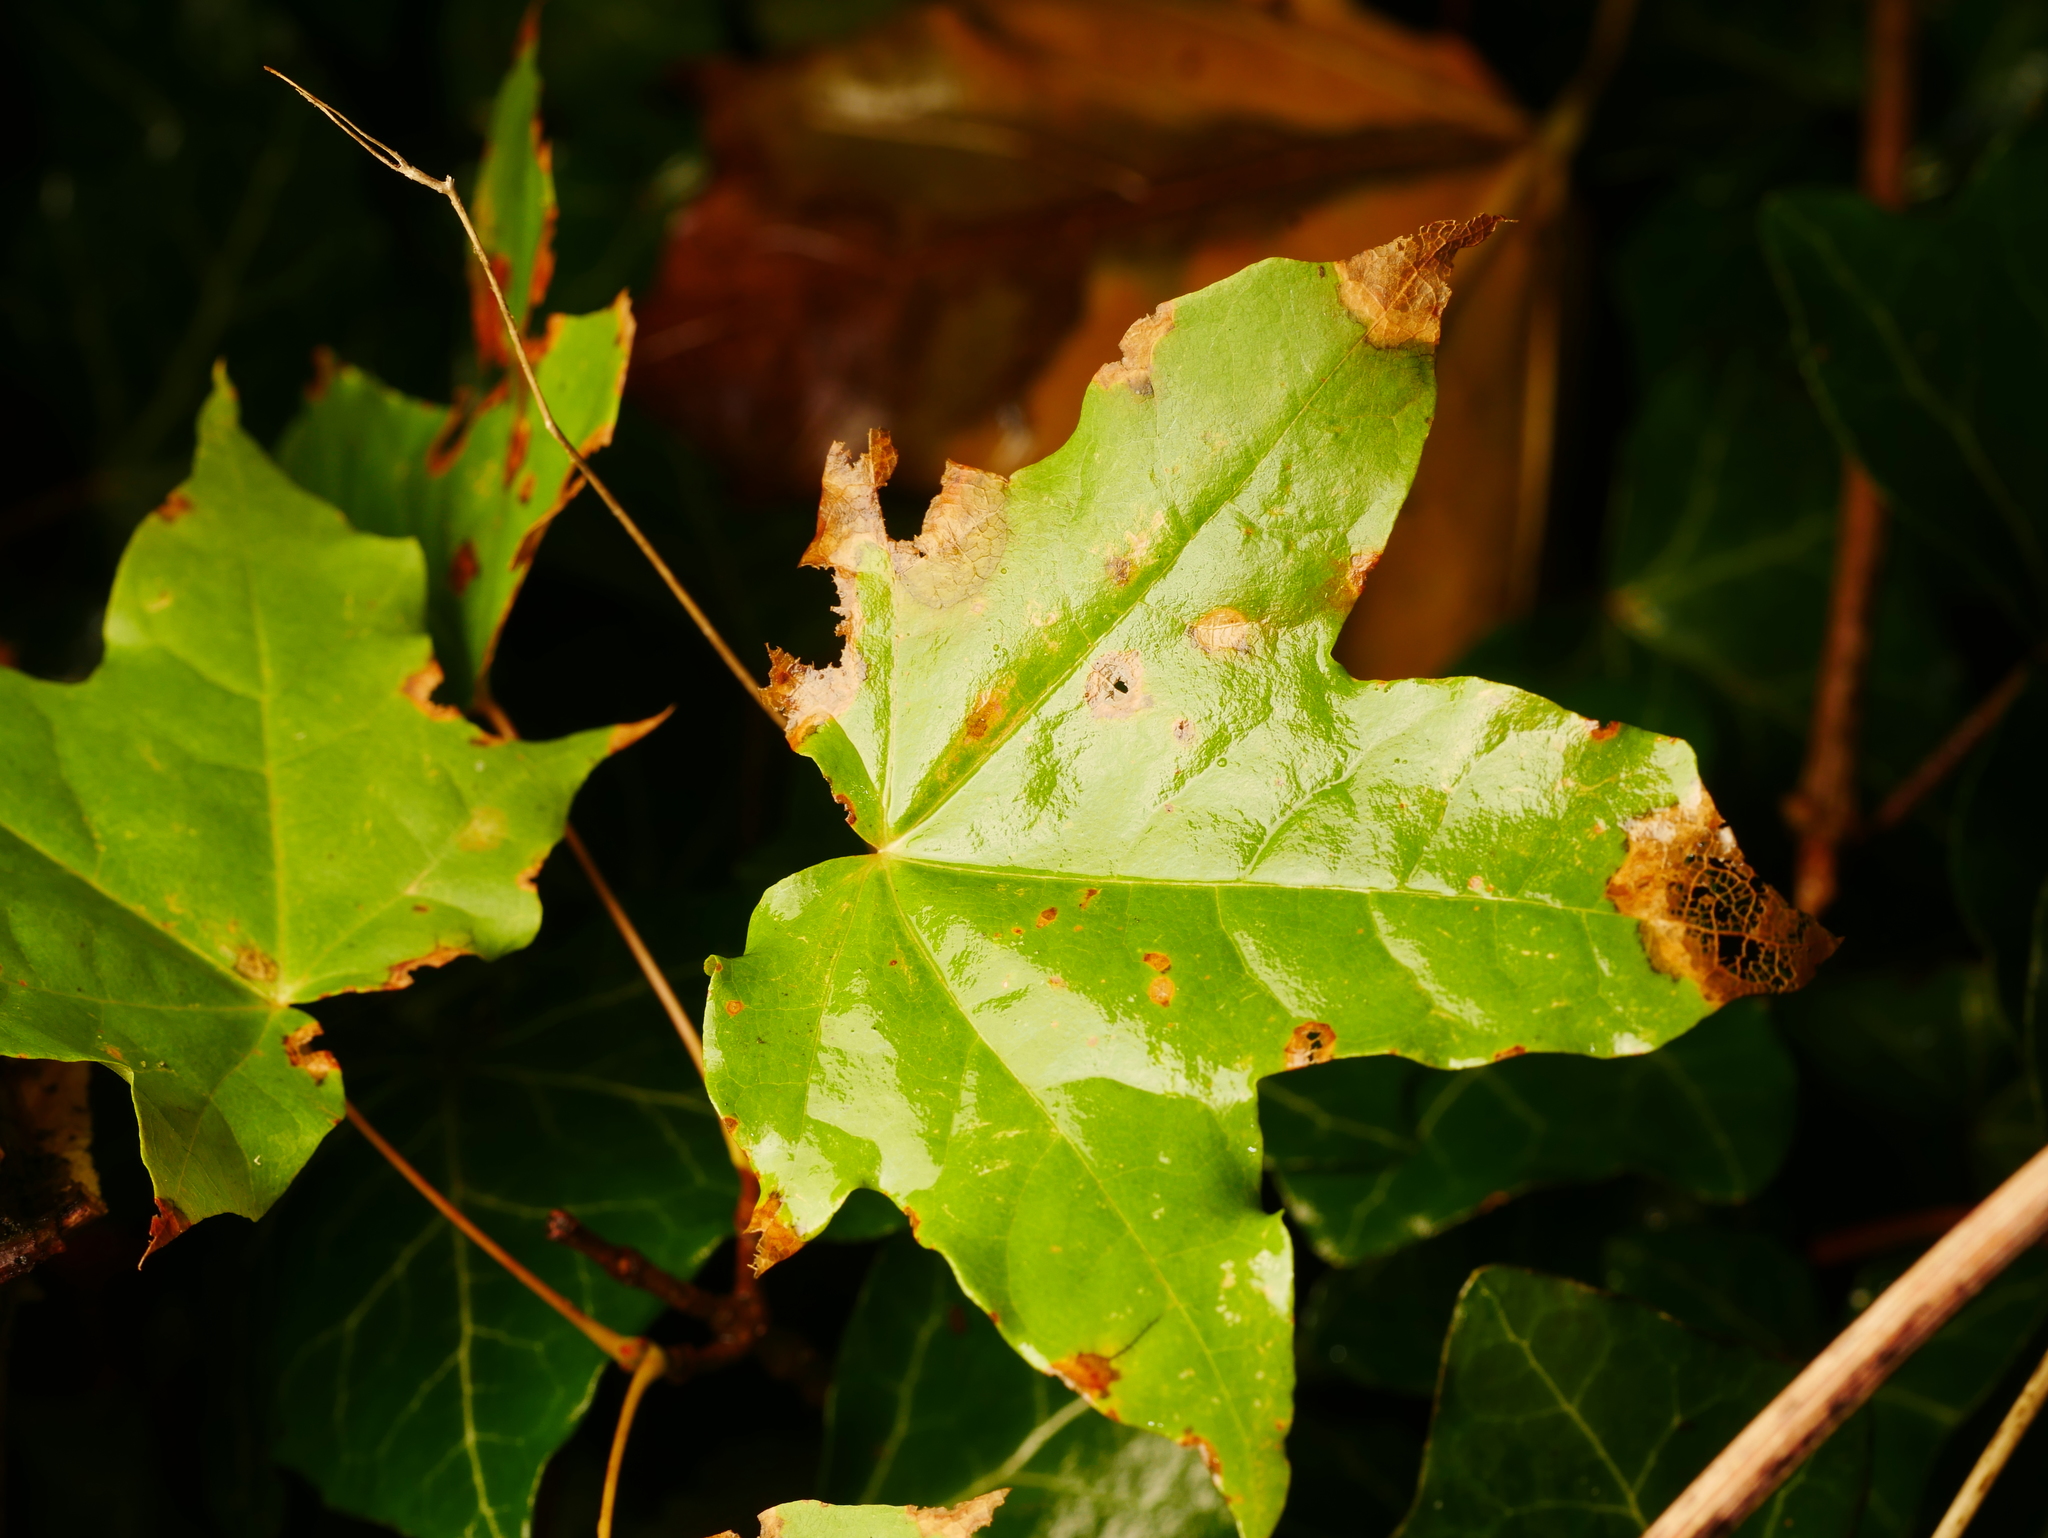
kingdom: Plantae
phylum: Tracheophyta
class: Magnoliopsida
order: Sapindales
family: Sapindaceae
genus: Acer
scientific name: Acer platanoides
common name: Norway maple
